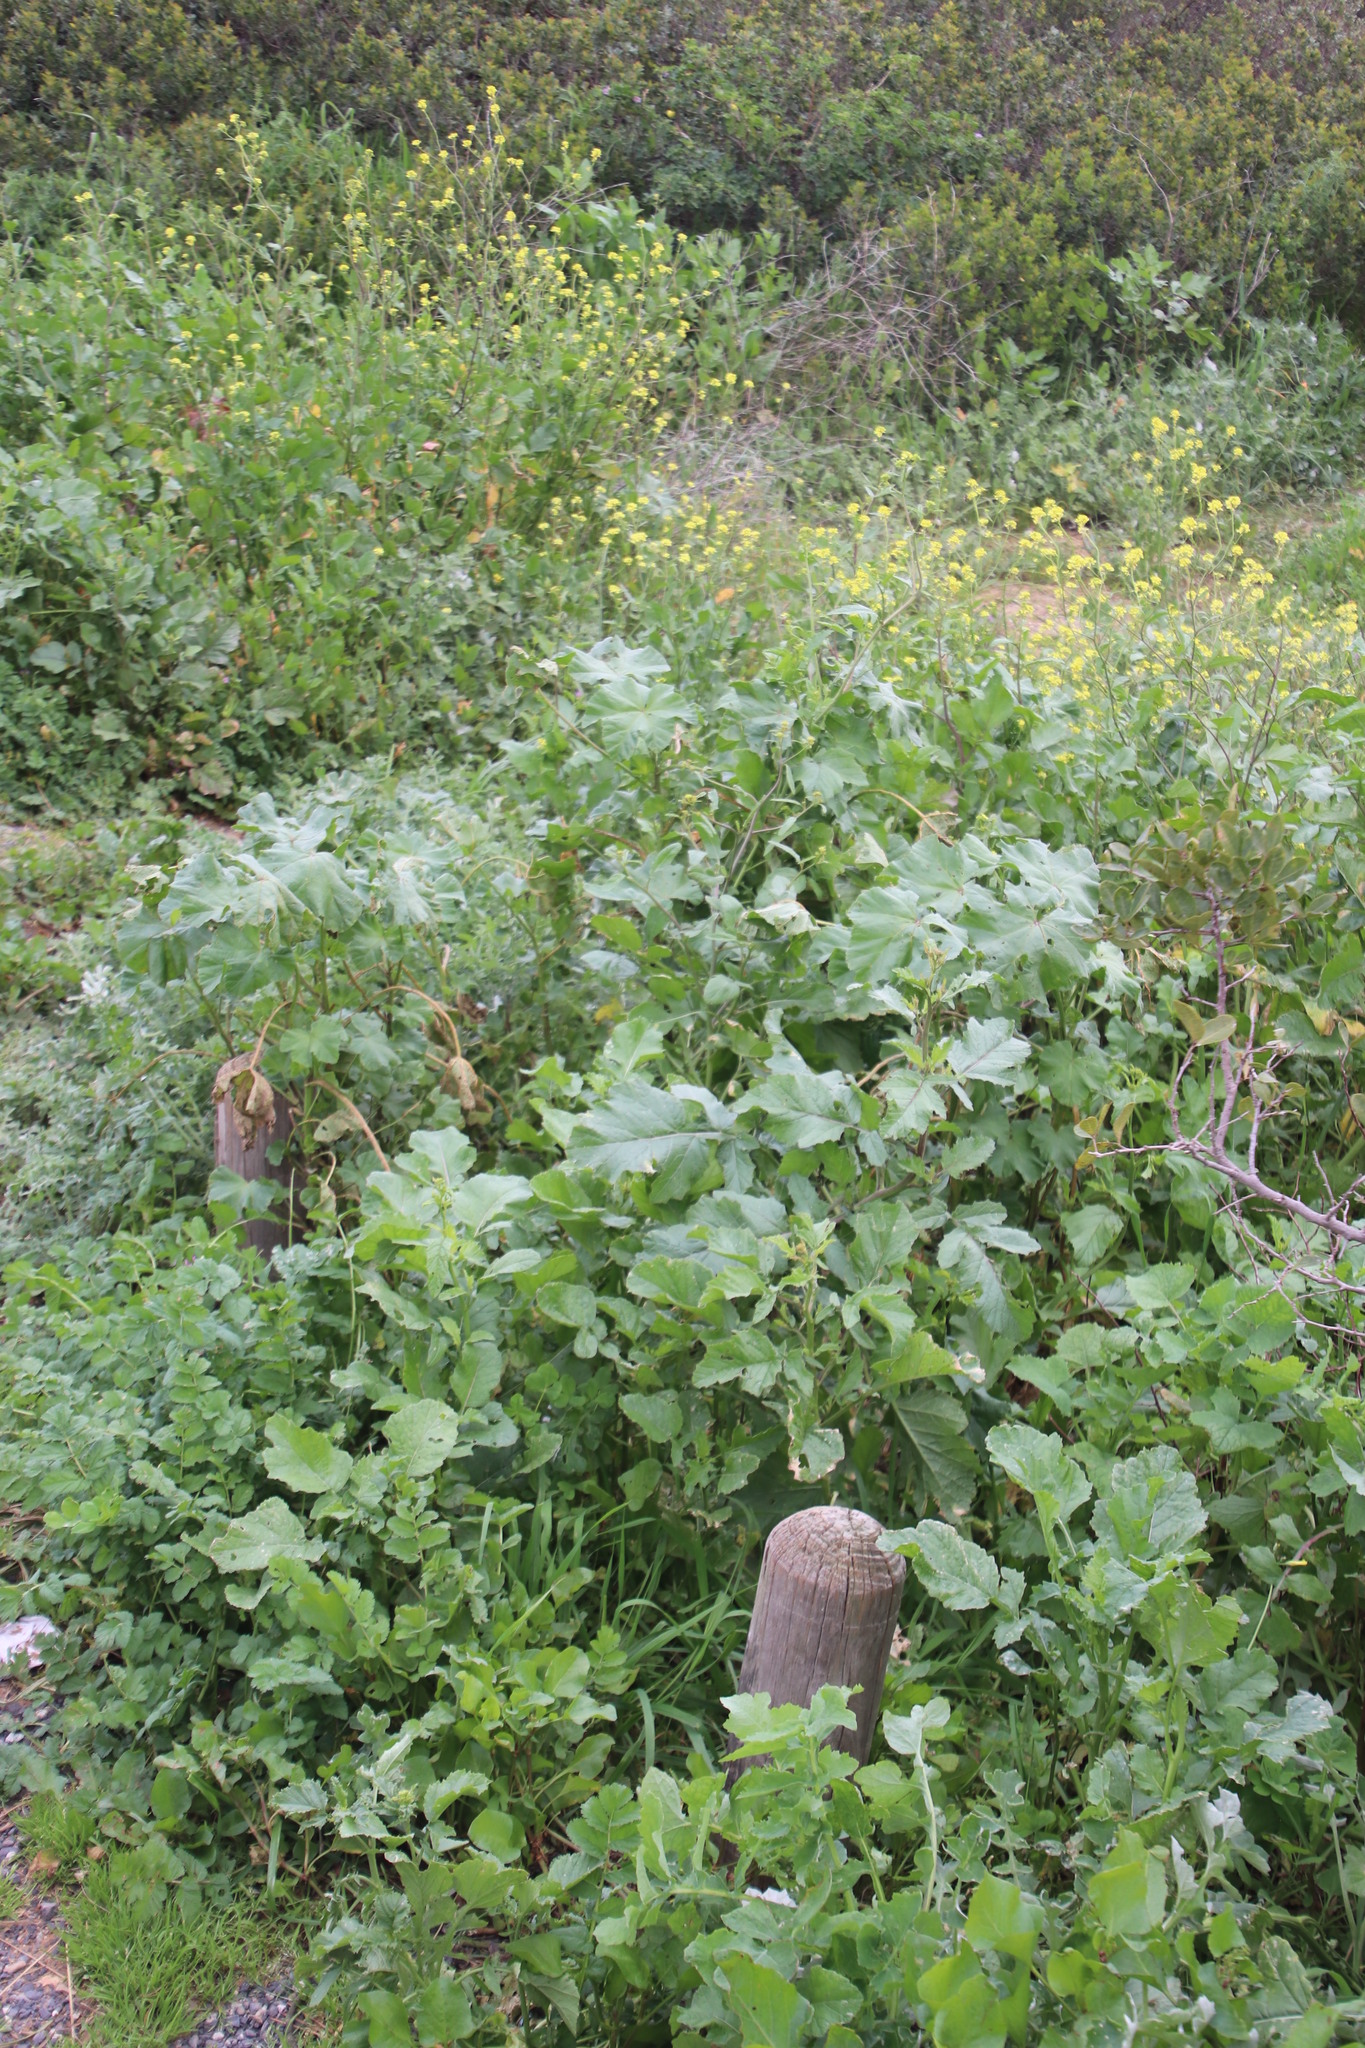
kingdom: Plantae
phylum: Tracheophyta
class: Magnoliopsida
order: Malvales
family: Malvaceae
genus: Malva
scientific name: Malva parviflora
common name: Least mallow
